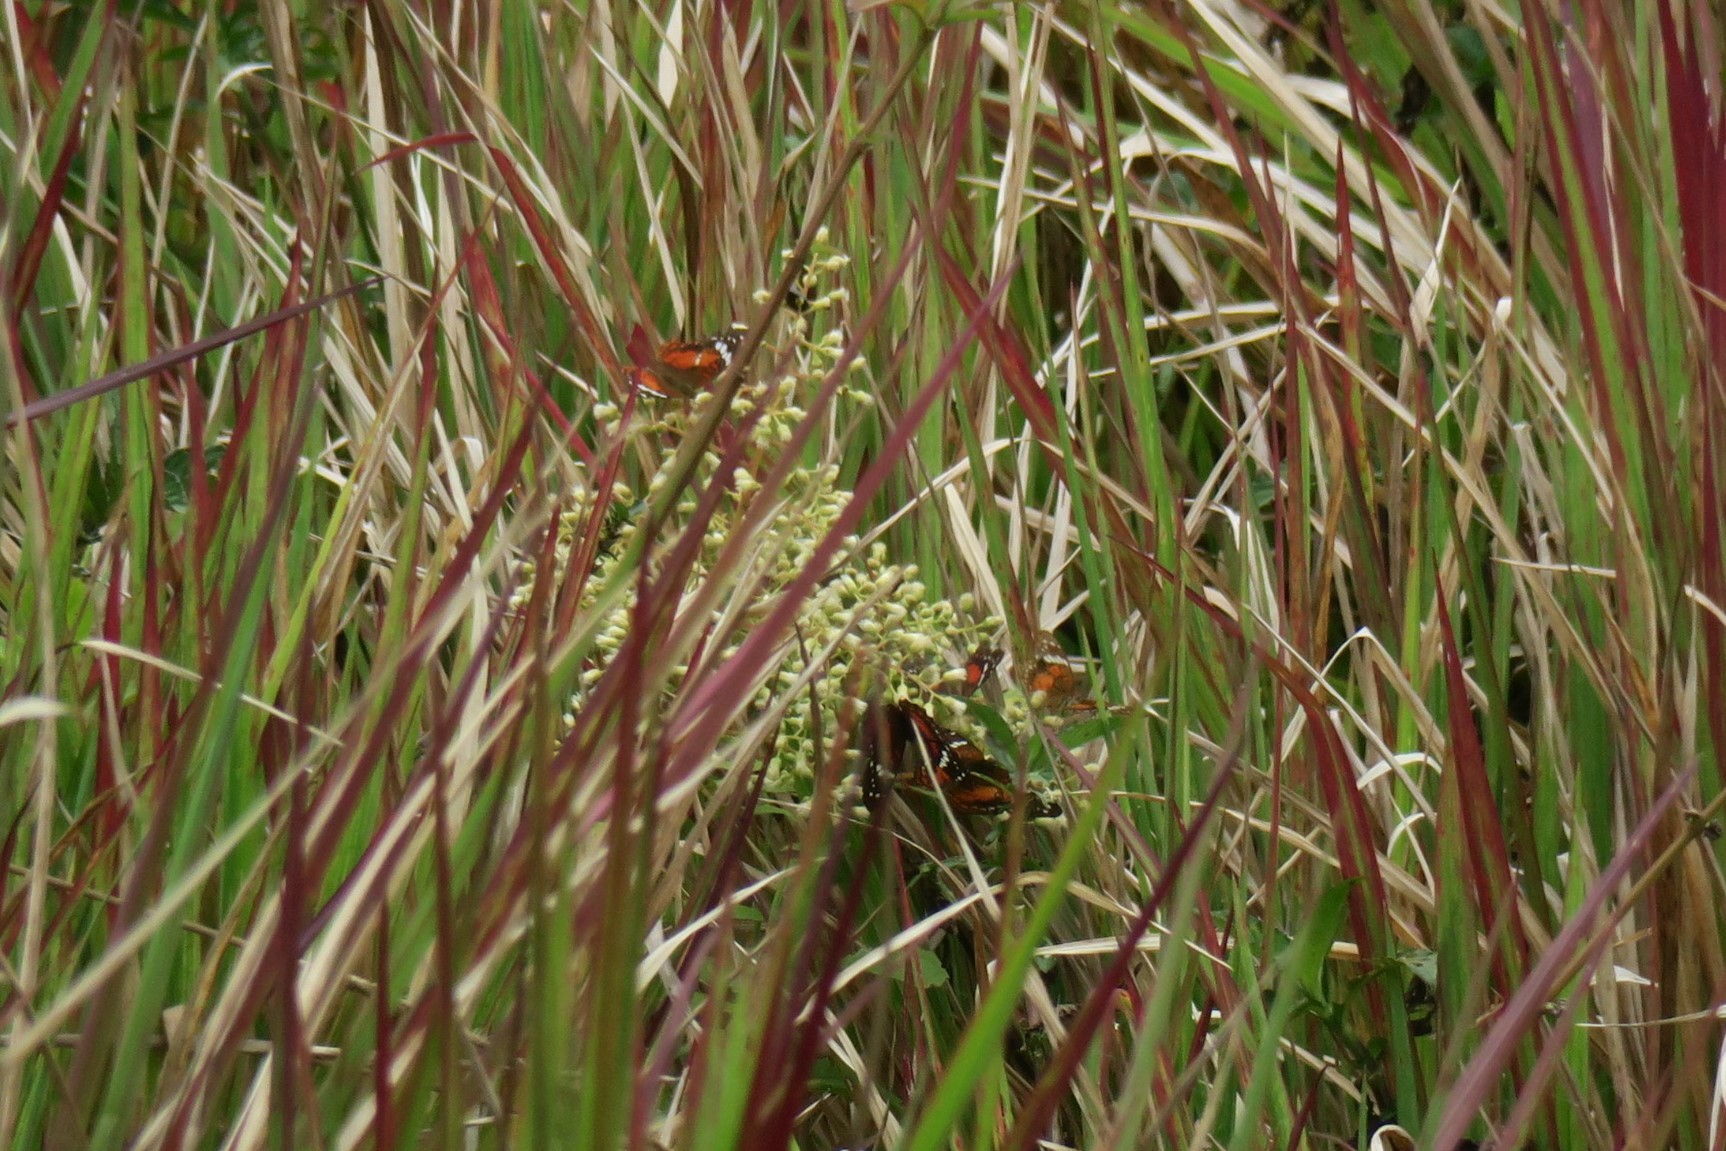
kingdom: Animalia
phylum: Arthropoda
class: Insecta
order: Lepidoptera
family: Nymphalidae
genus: Anartia
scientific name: Anartia amathea
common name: Red peacock
